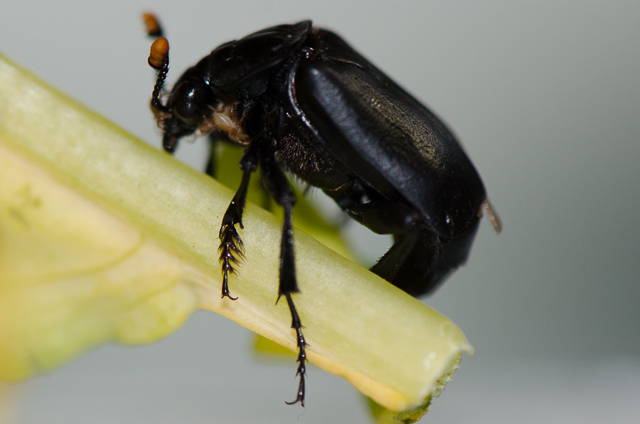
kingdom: Animalia
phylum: Arthropoda
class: Insecta
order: Coleoptera
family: Staphylinidae
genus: Nicrophorus
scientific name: Nicrophorus nigrita
